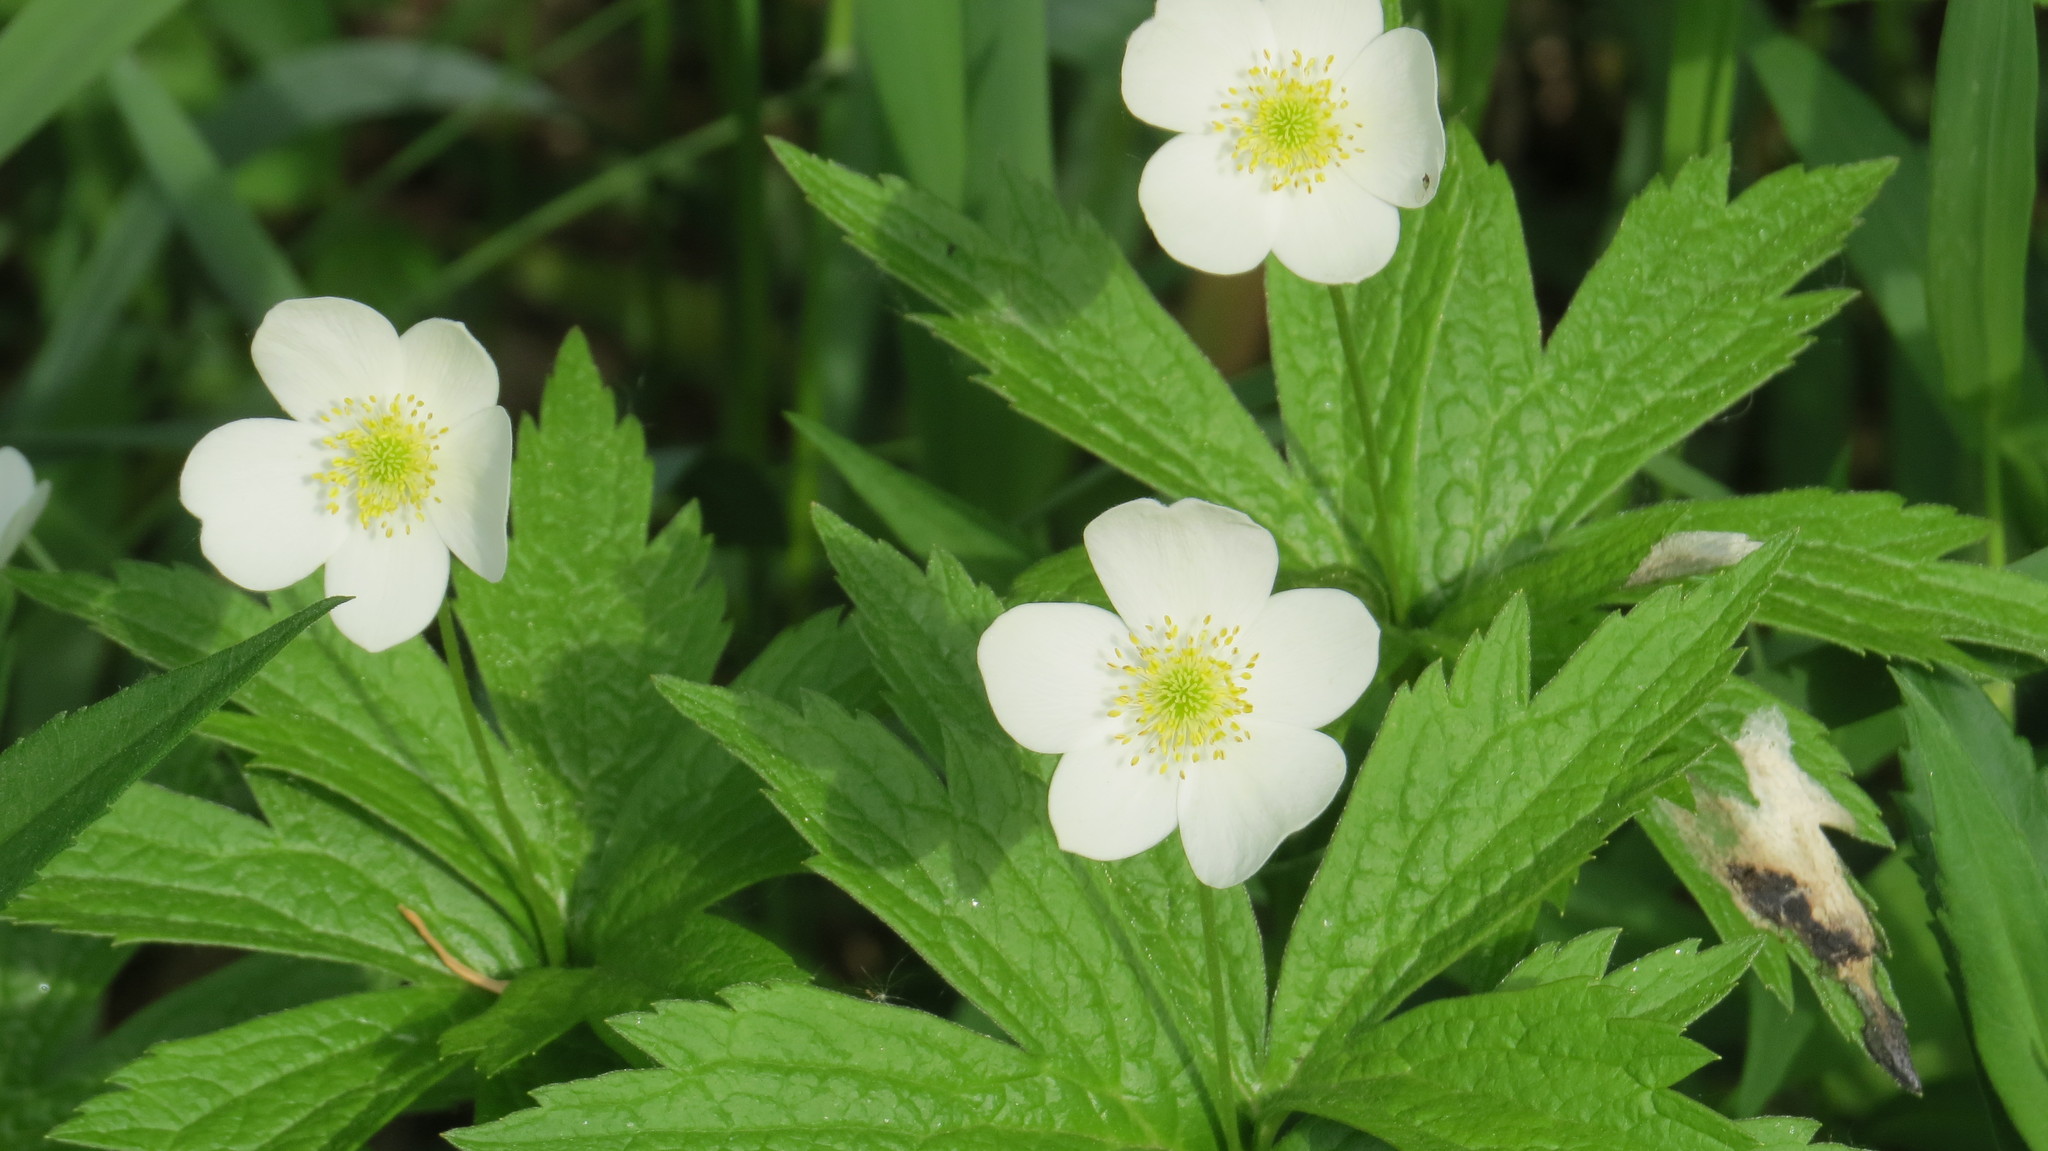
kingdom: Plantae
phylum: Tracheophyta
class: Magnoliopsida
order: Ranunculales
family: Ranunculaceae
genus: Anemonastrum
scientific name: Anemonastrum canadense
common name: Canada anemone
